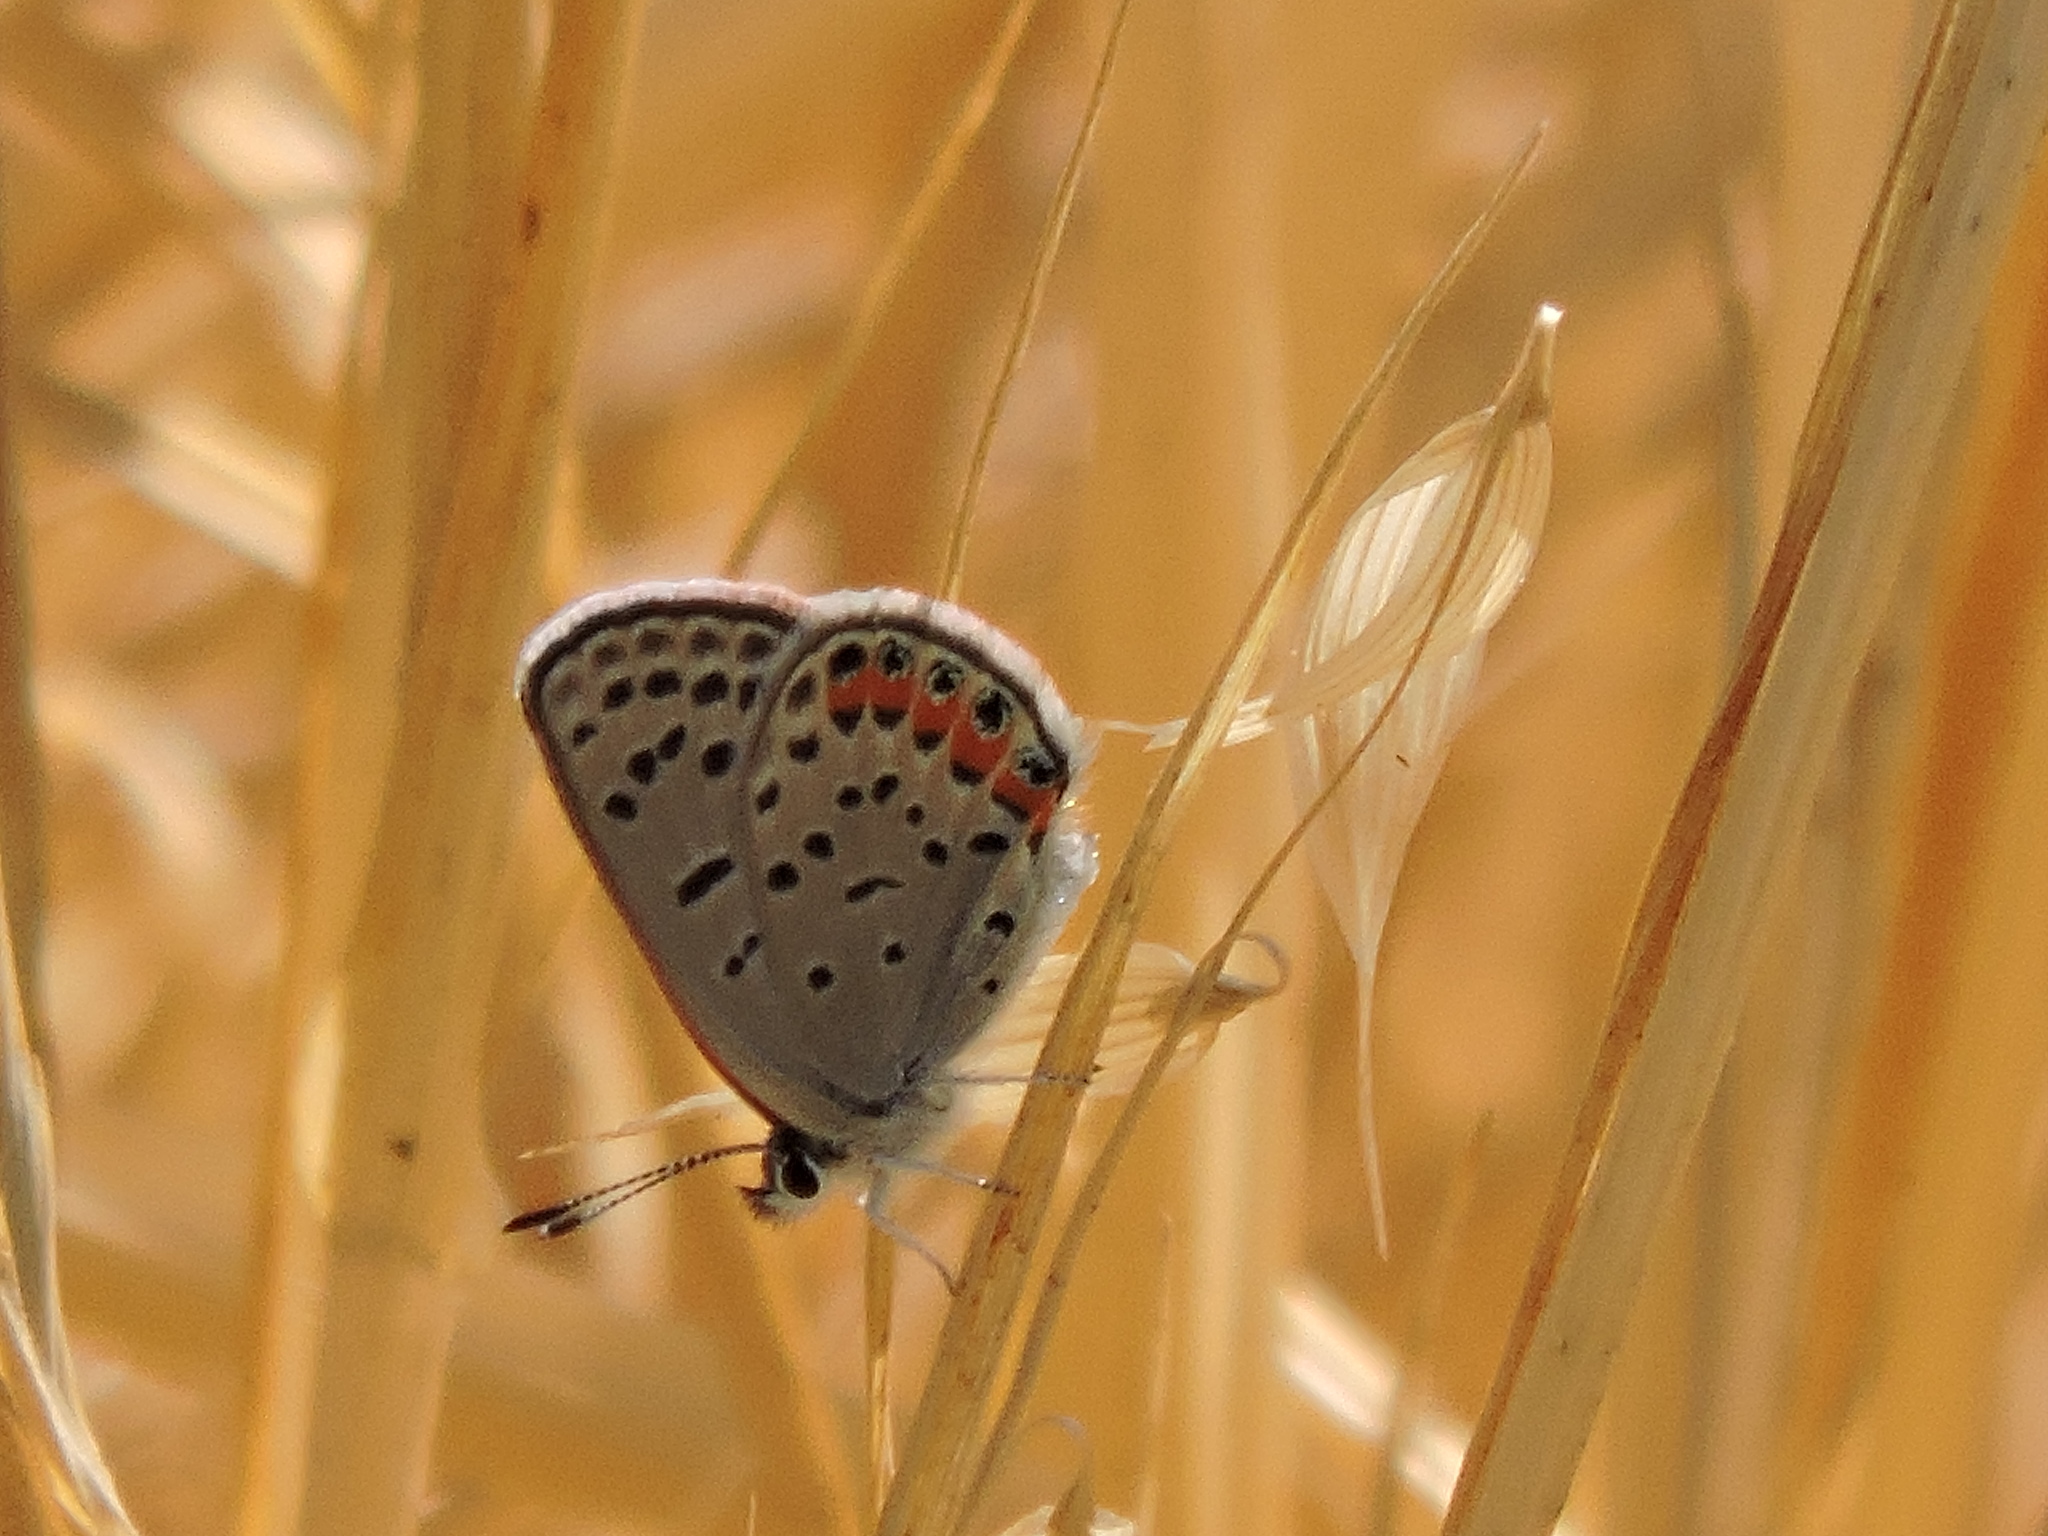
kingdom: Animalia
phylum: Arthropoda
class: Insecta
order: Lepidoptera
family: Lycaenidae
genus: Icaricia
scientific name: Icaricia acmon
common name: Acmon blue
